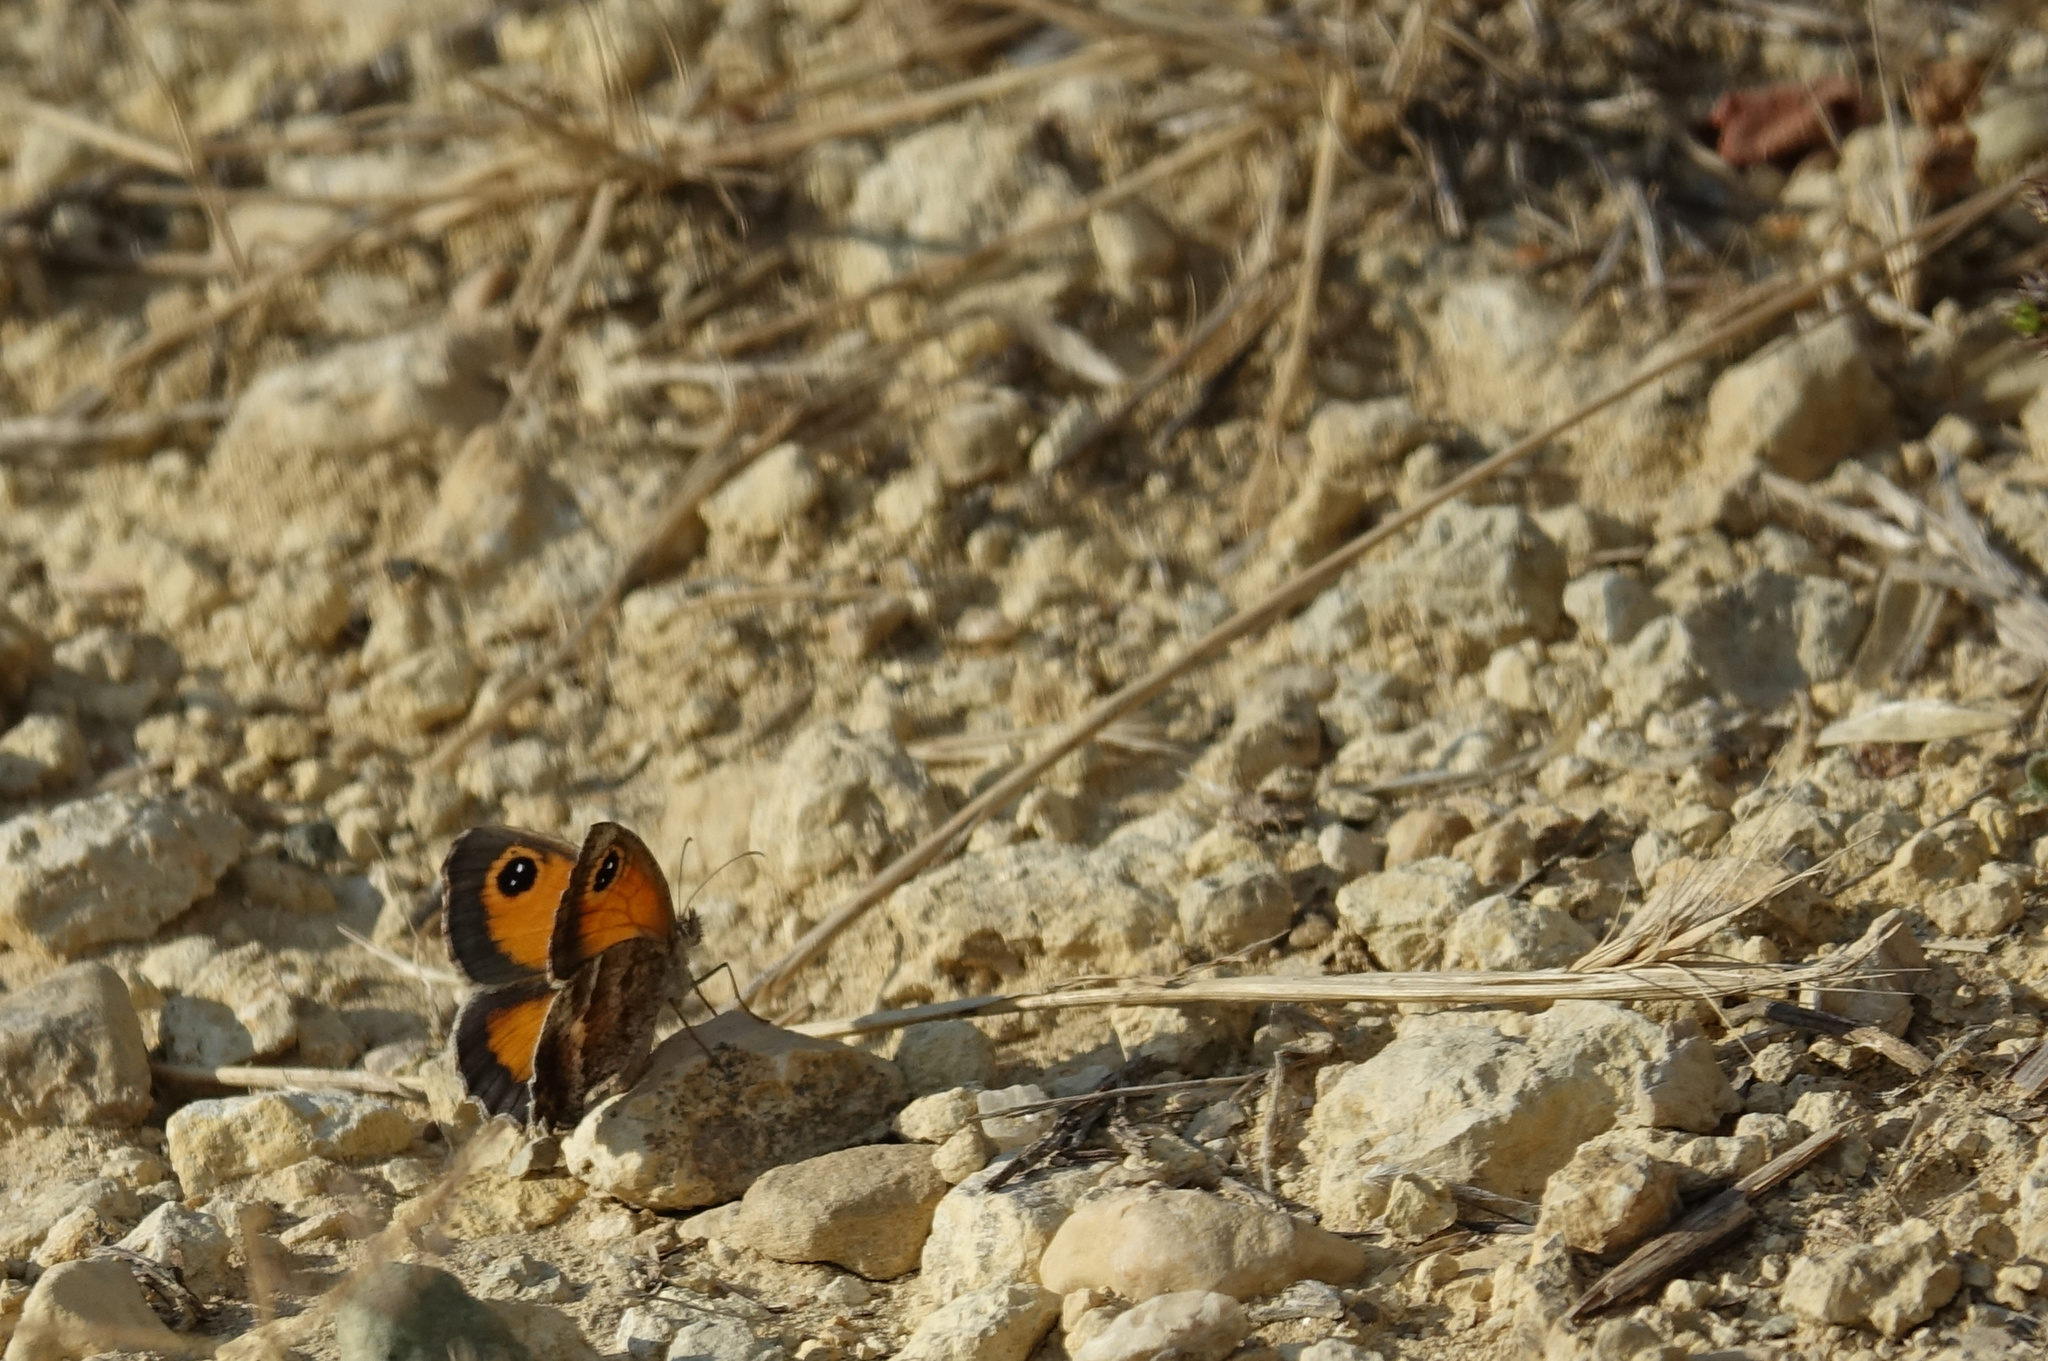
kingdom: Animalia
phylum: Arthropoda
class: Insecta
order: Lepidoptera
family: Nymphalidae
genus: Pyronia
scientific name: Pyronia cecilia
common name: Southern gatekeeper
